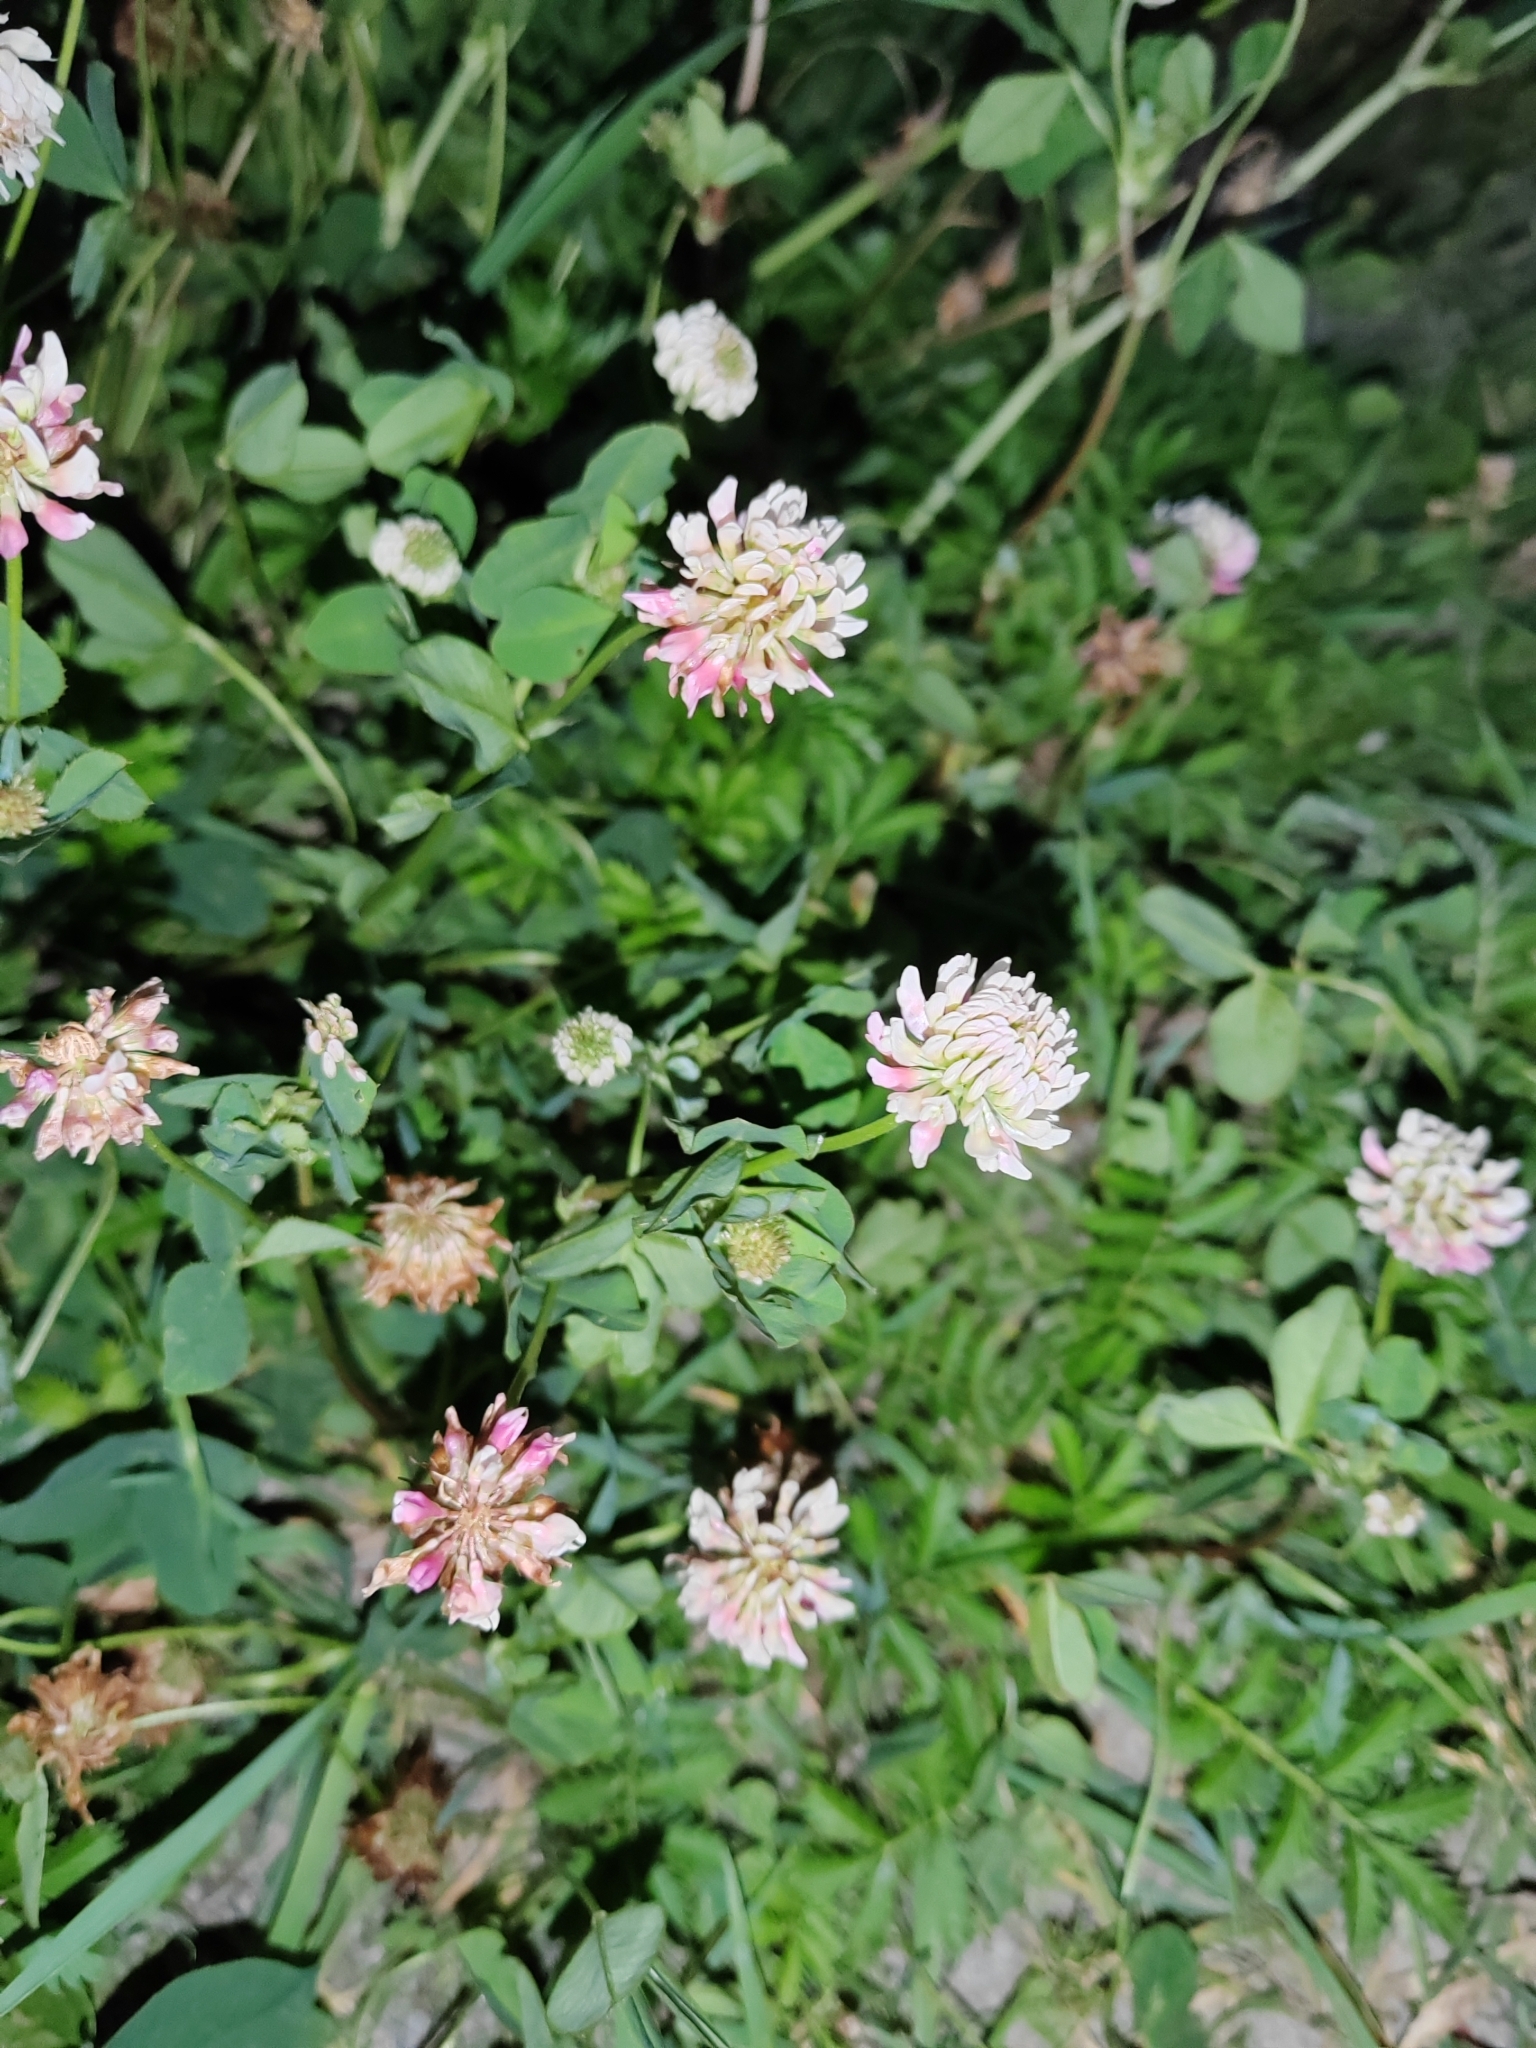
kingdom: Plantae
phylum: Tracheophyta
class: Magnoliopsida
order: Fabales
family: Fabaceae
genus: Trifolium
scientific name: Trifolium hybridum
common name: Alsike clover
